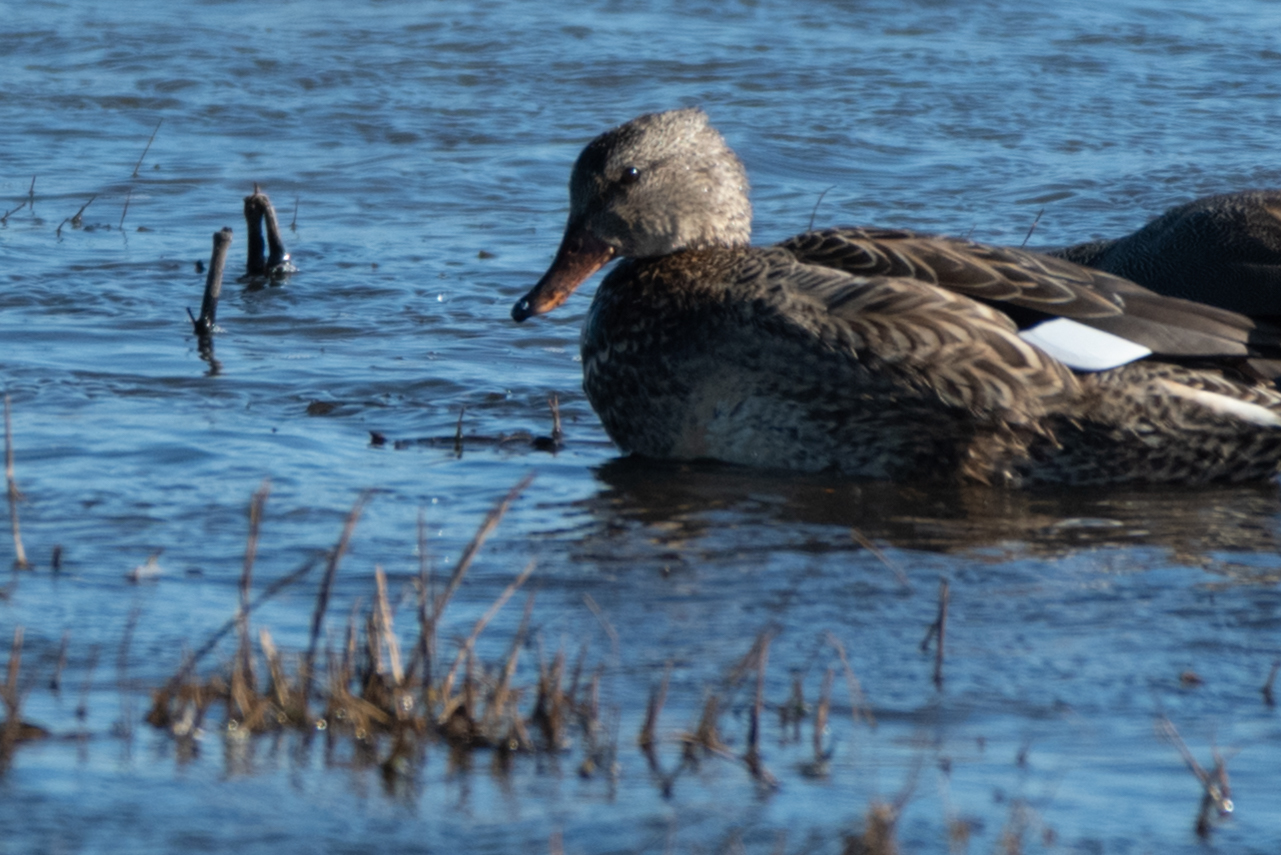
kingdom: Animalia
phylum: Chordata
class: Aves
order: Anseriformes
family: Anatidae
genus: Mareca
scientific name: Mareca strepera
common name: Gadwall
